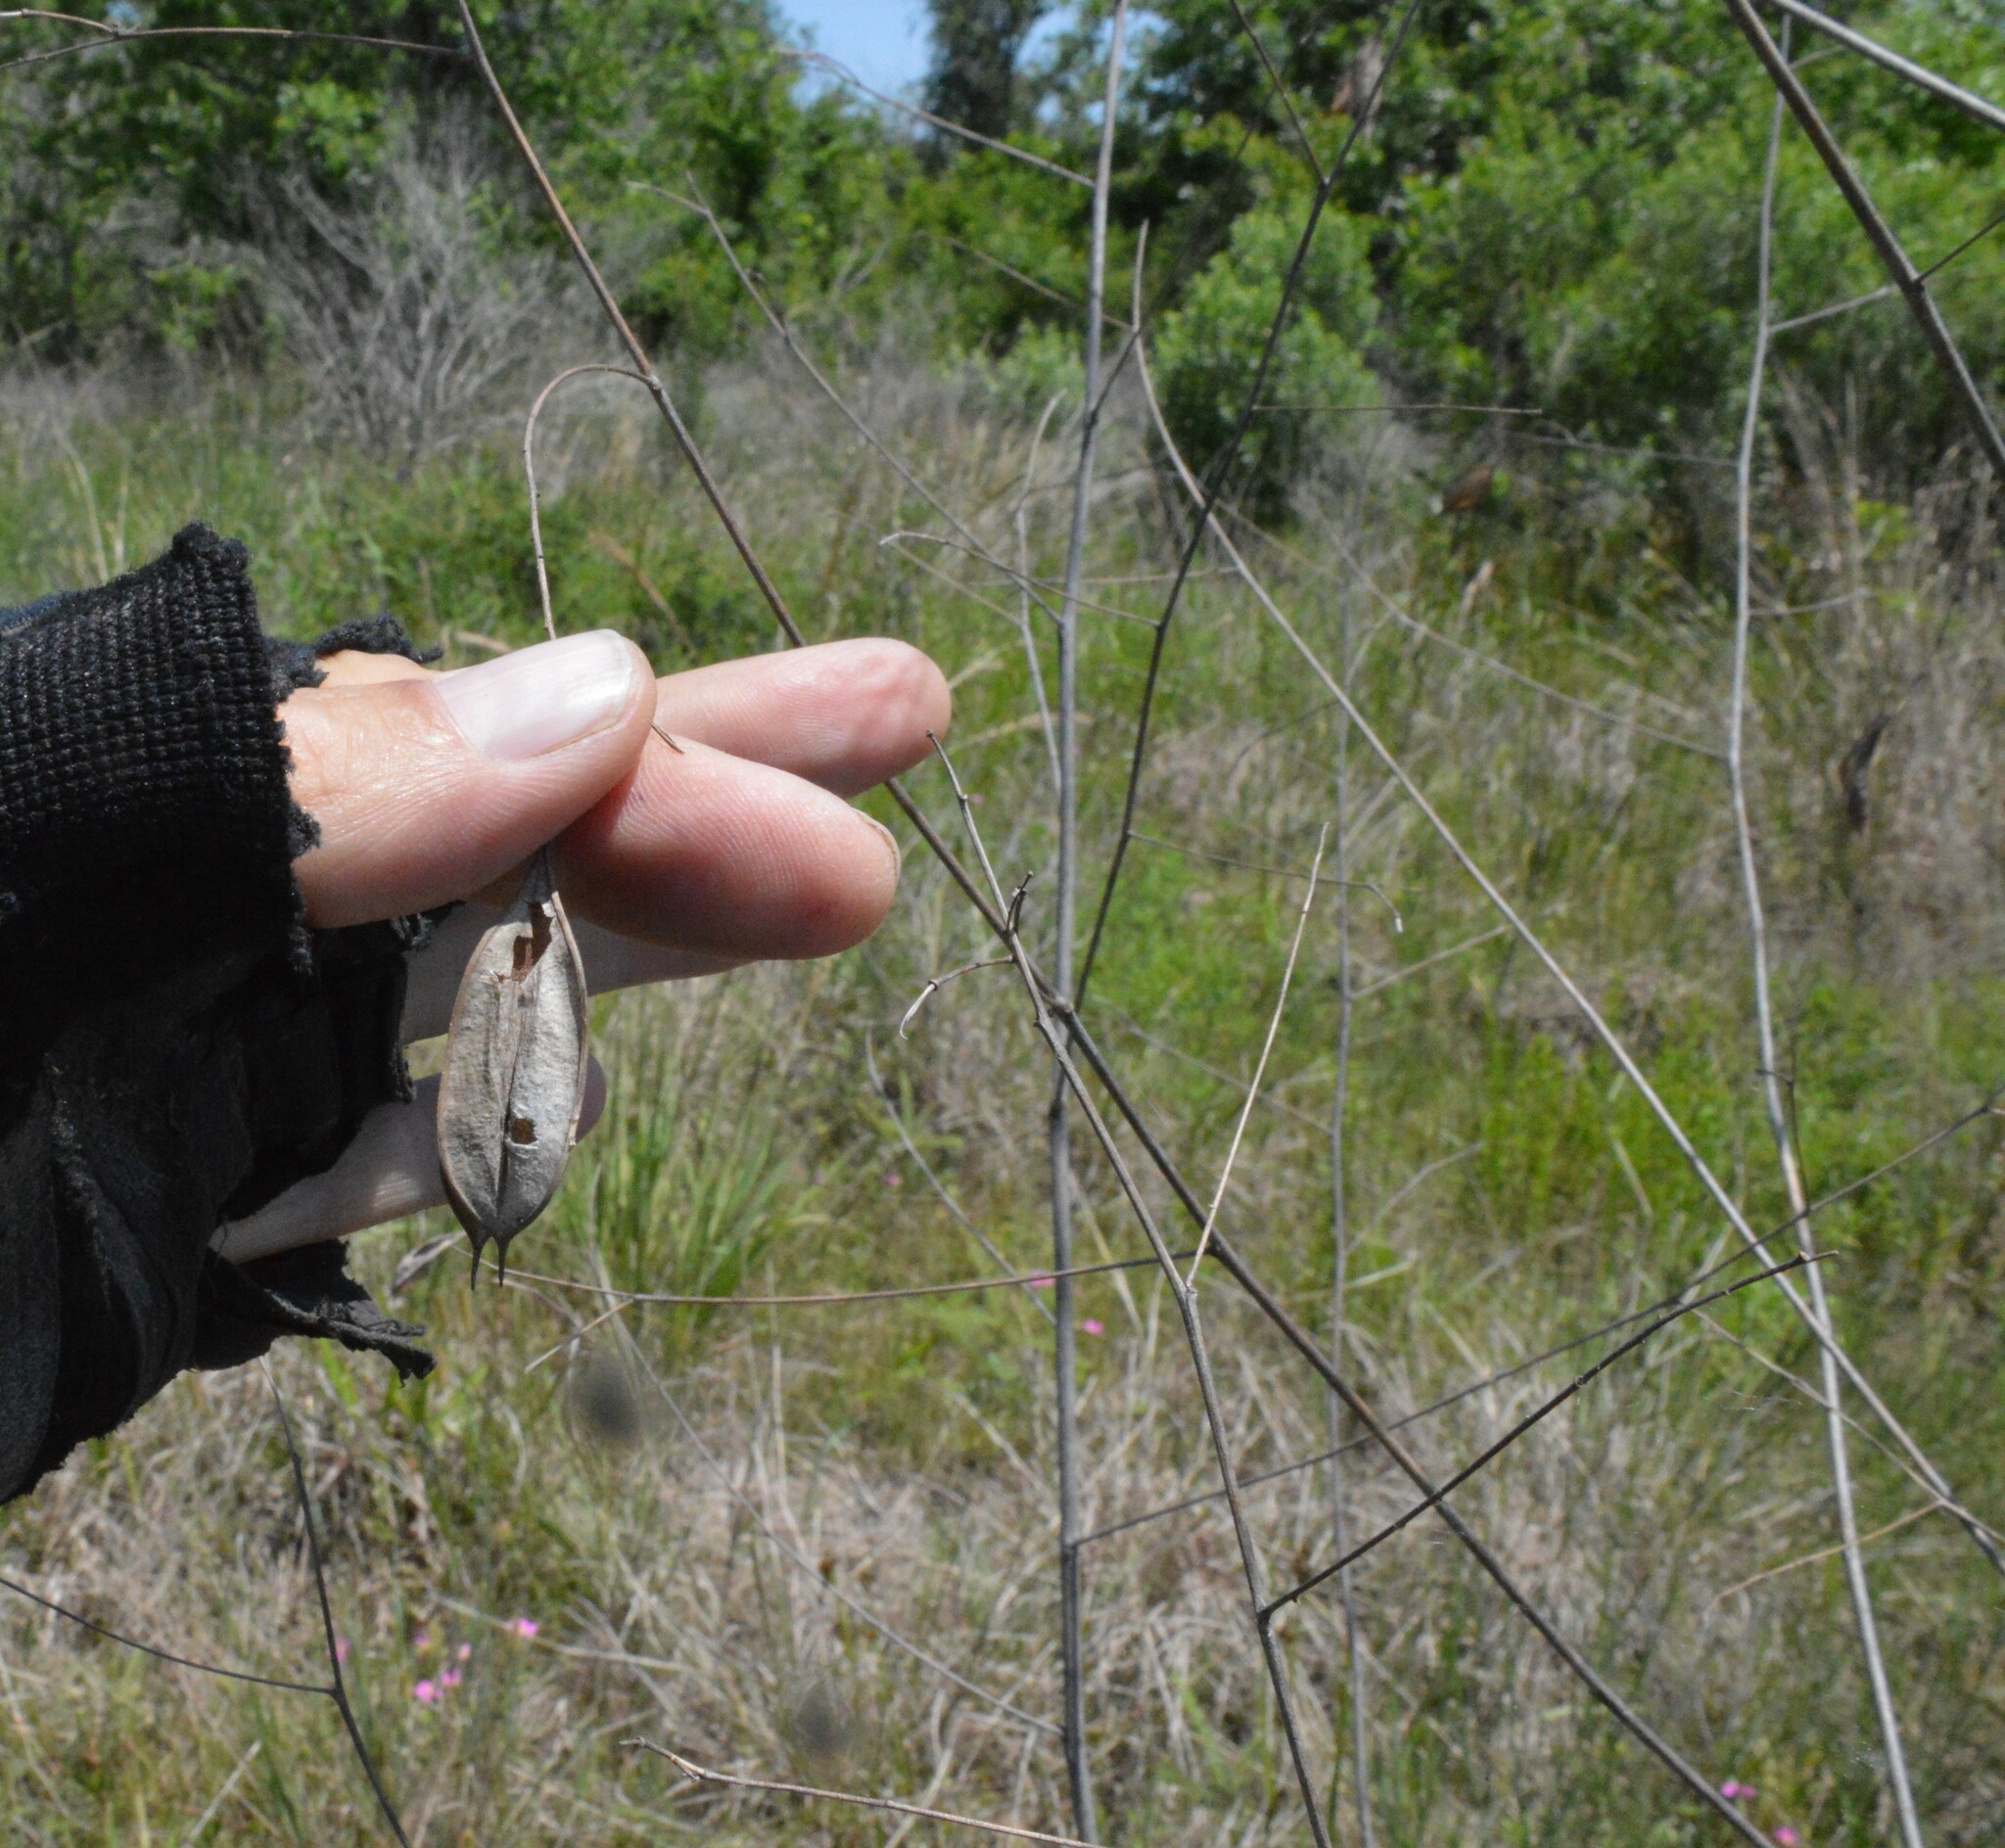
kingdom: Plantae
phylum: Tracheophyta
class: Magnoliopsida
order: Fabales
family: Fabaceae
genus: Sesbania
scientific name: Sesbania vesicaria
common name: Bagpod
